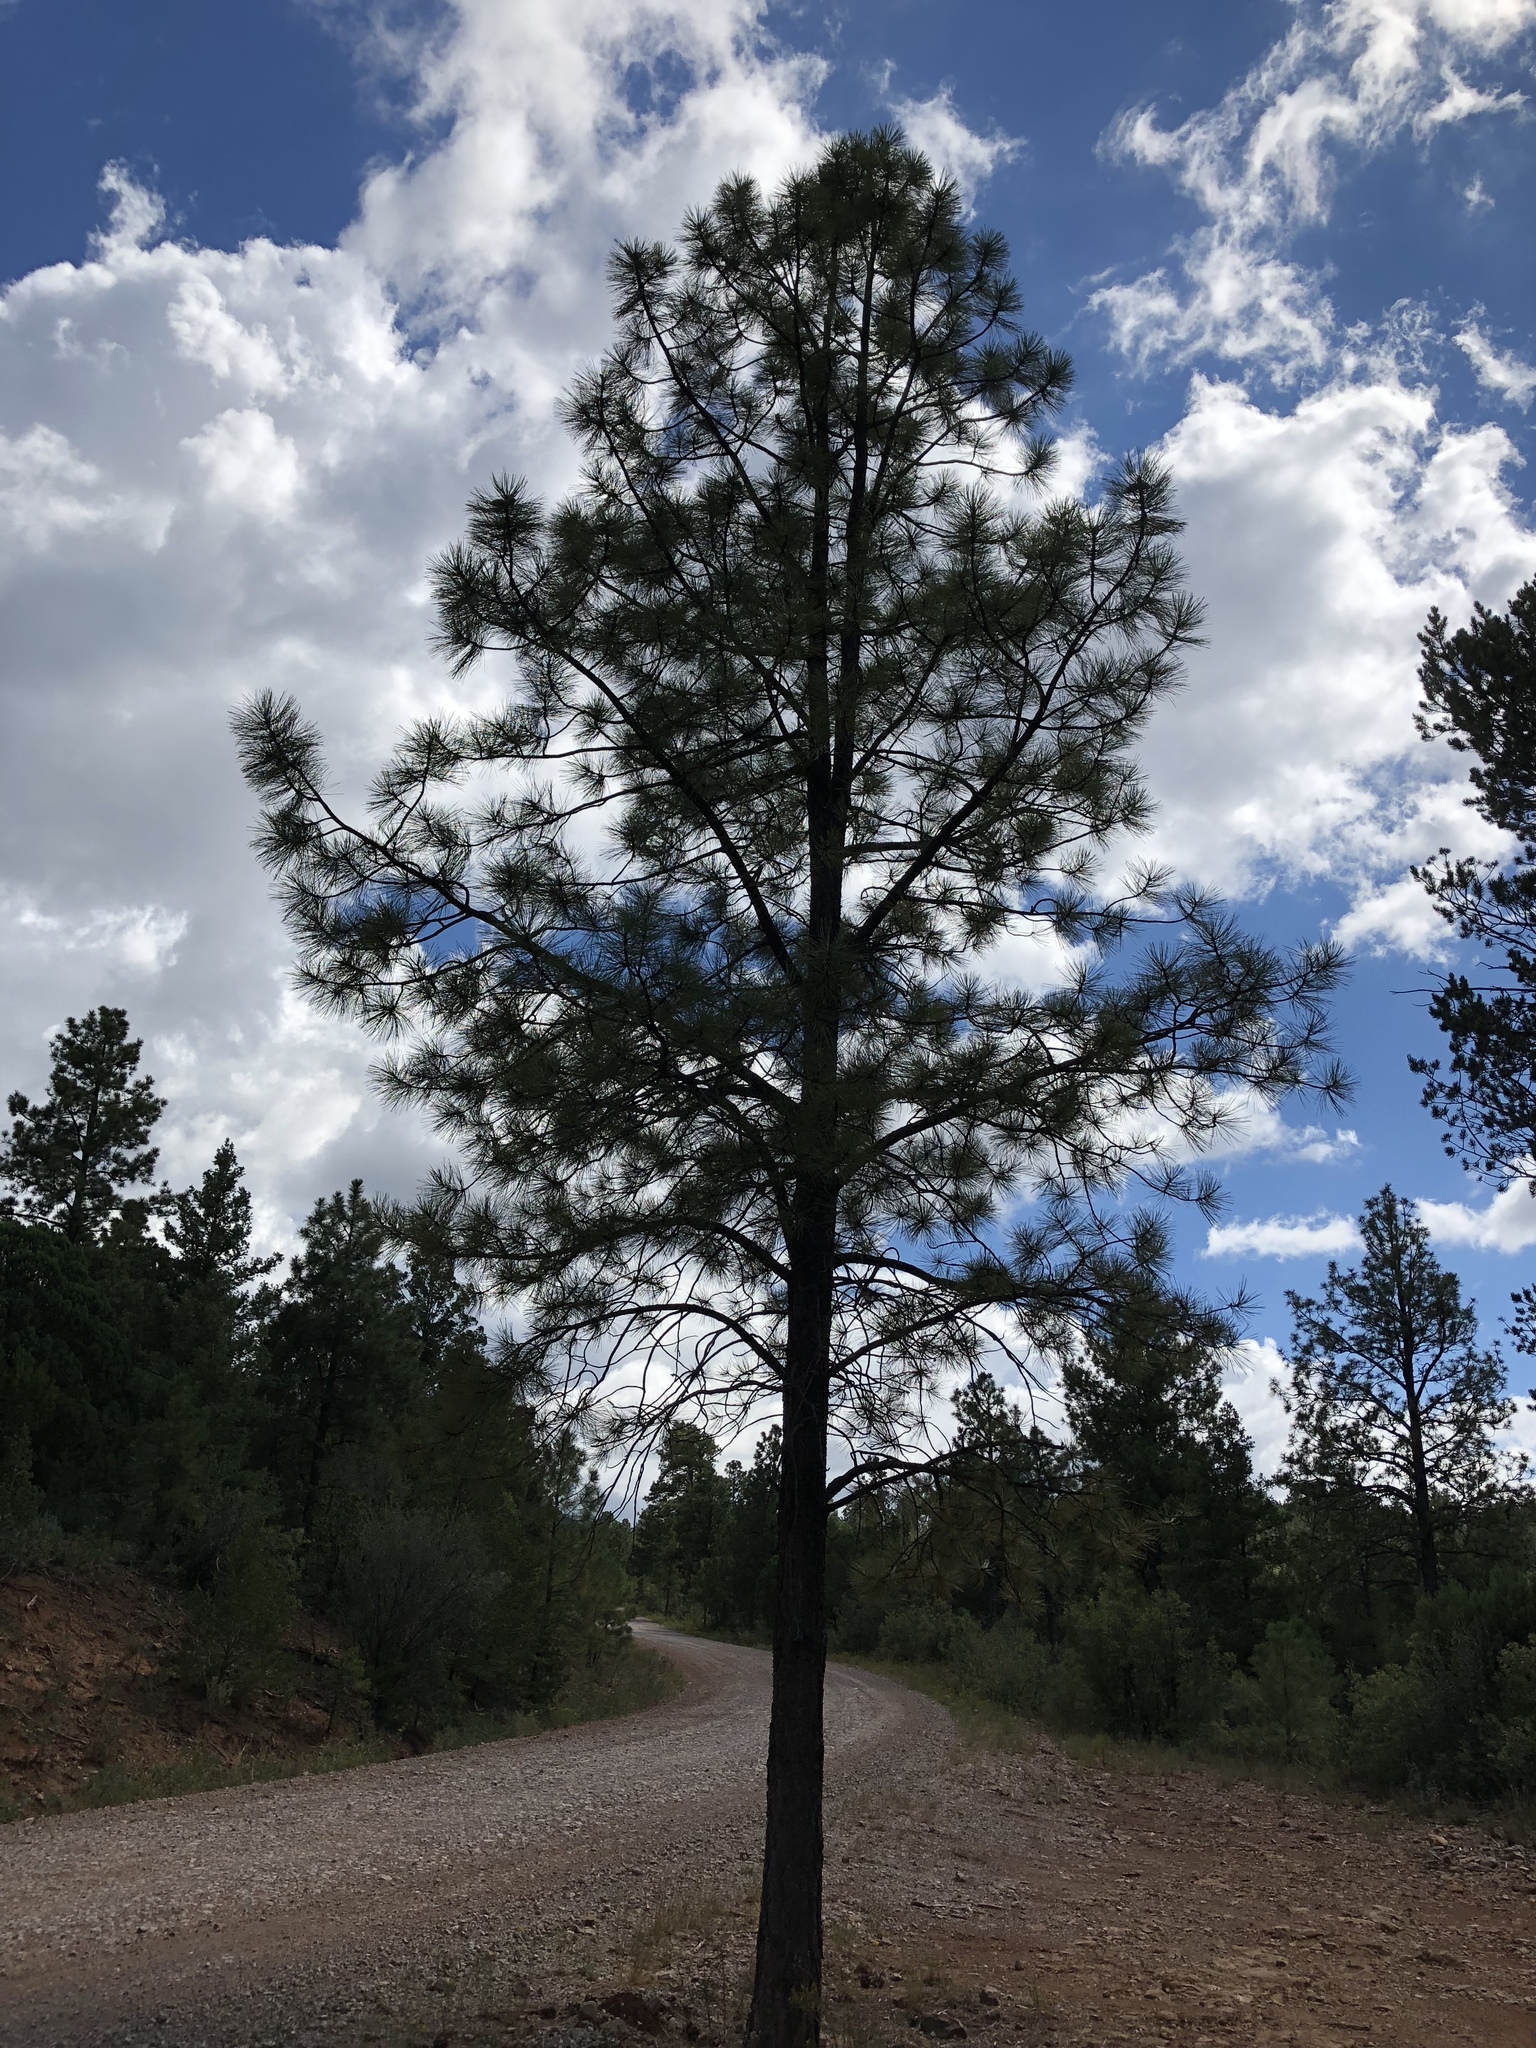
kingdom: Plantae
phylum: Tracheophyta
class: Pinopsida
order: Pinales
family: Pinaceae
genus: Pinus
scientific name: Pinus ponderosa
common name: Western yellow-pine
